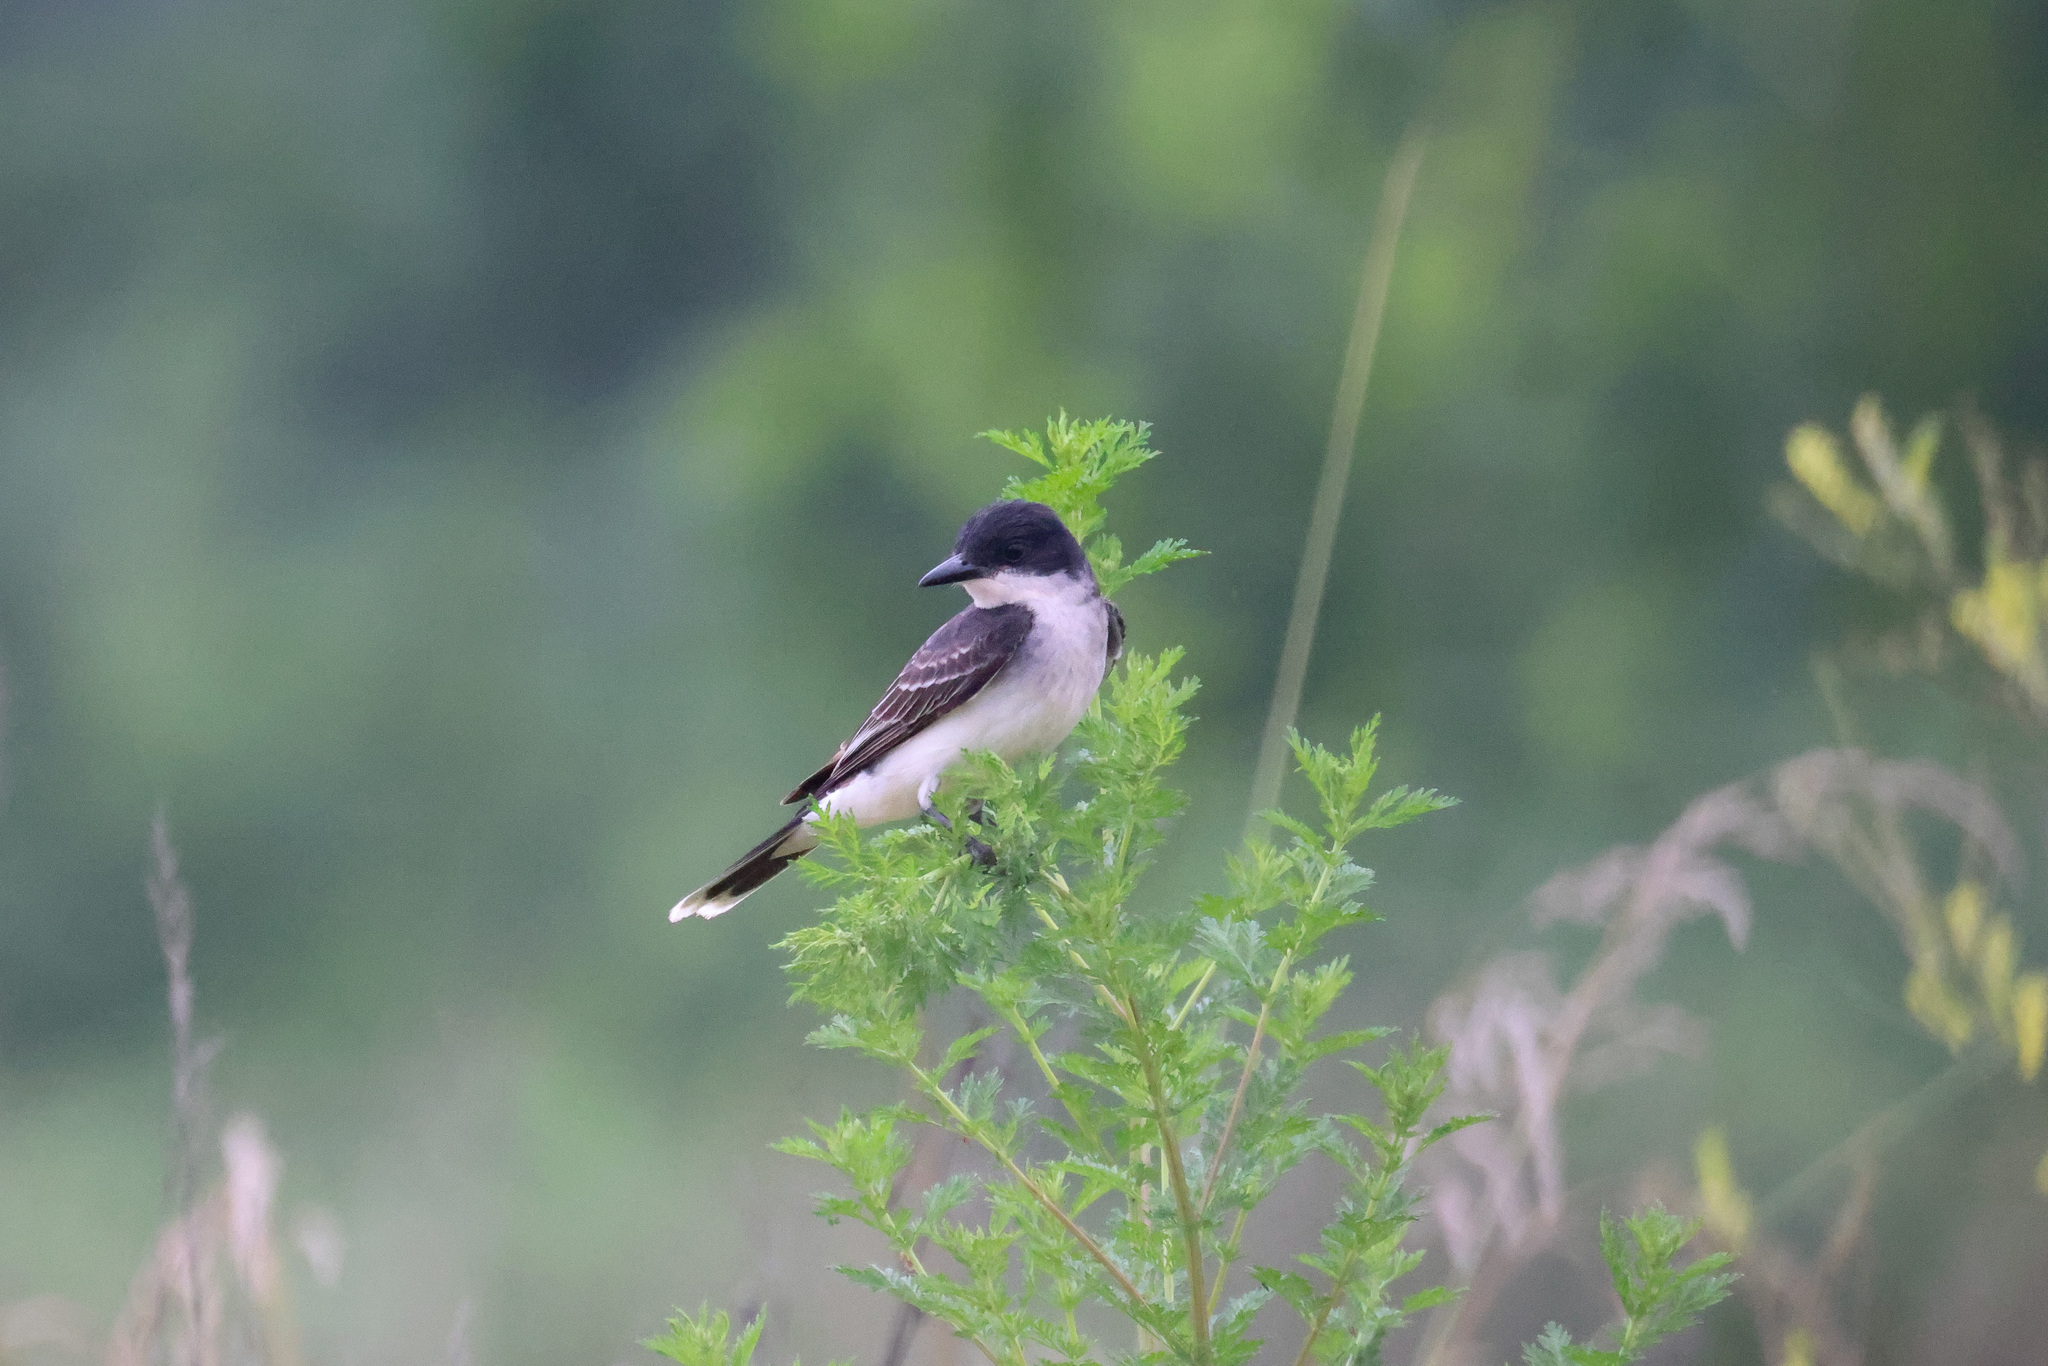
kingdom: Animalia
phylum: Chordata
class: Aves
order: Passeriformes
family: Tyrannidae
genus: Tyrannus
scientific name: Tyrannus tyrannus
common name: Eastern kingbird
